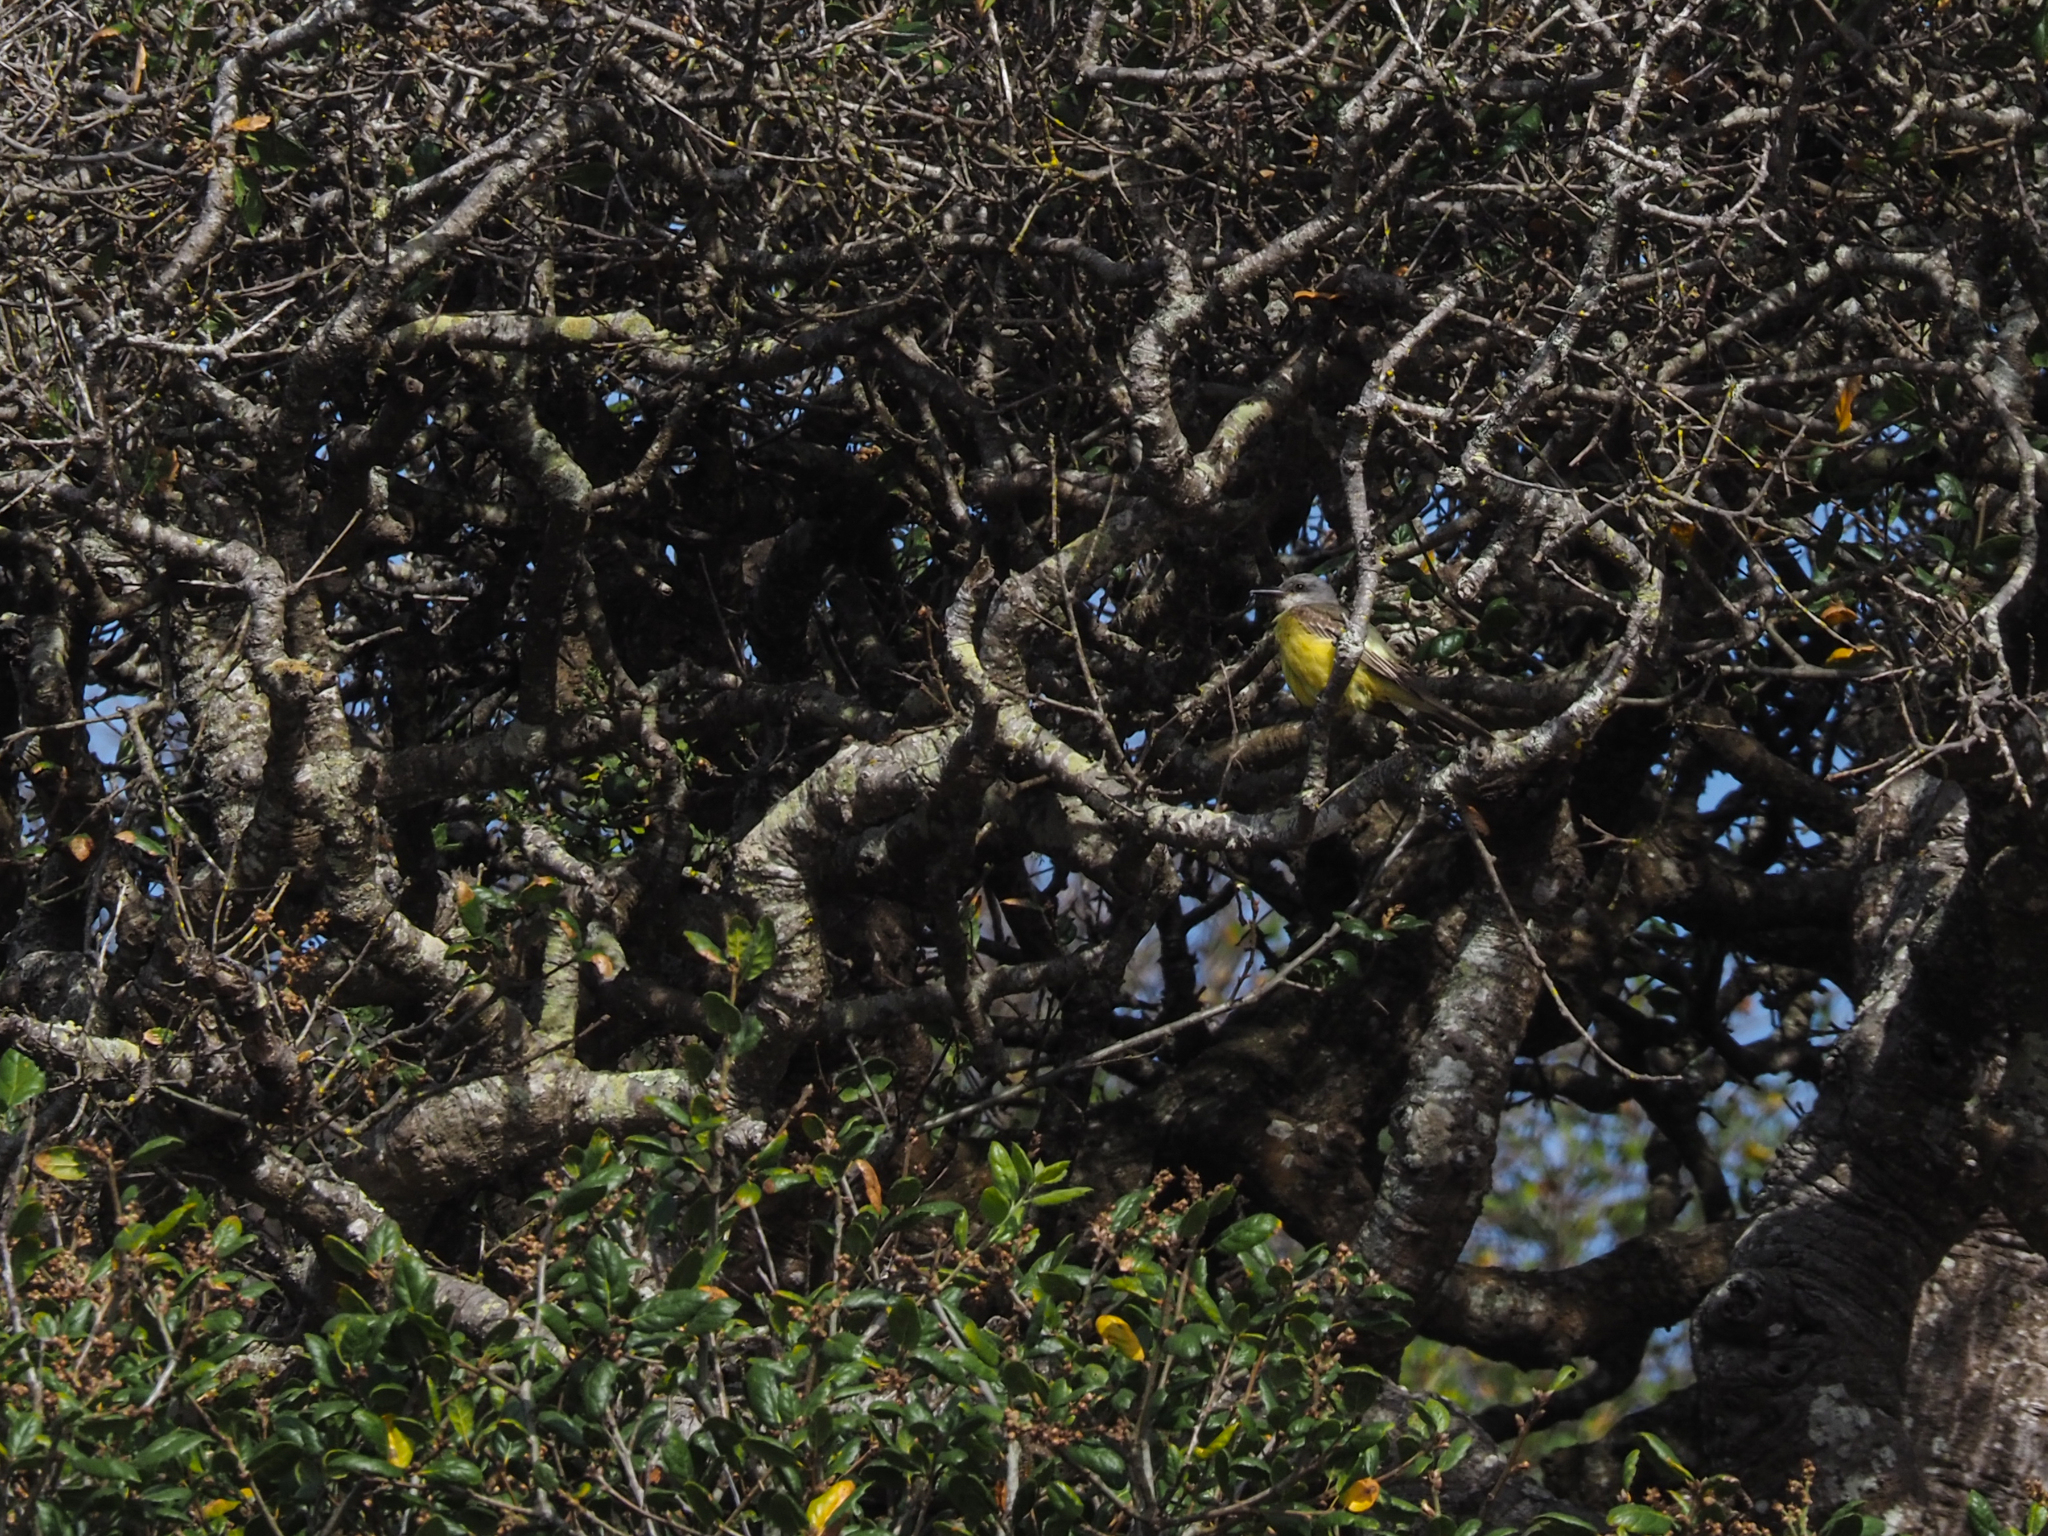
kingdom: Animalia
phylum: Chordata
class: Aves
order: Passeriformes
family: Tyrannidae
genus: Tyrannus
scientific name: Tyrannus melancholicus
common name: Tropical kingbird
